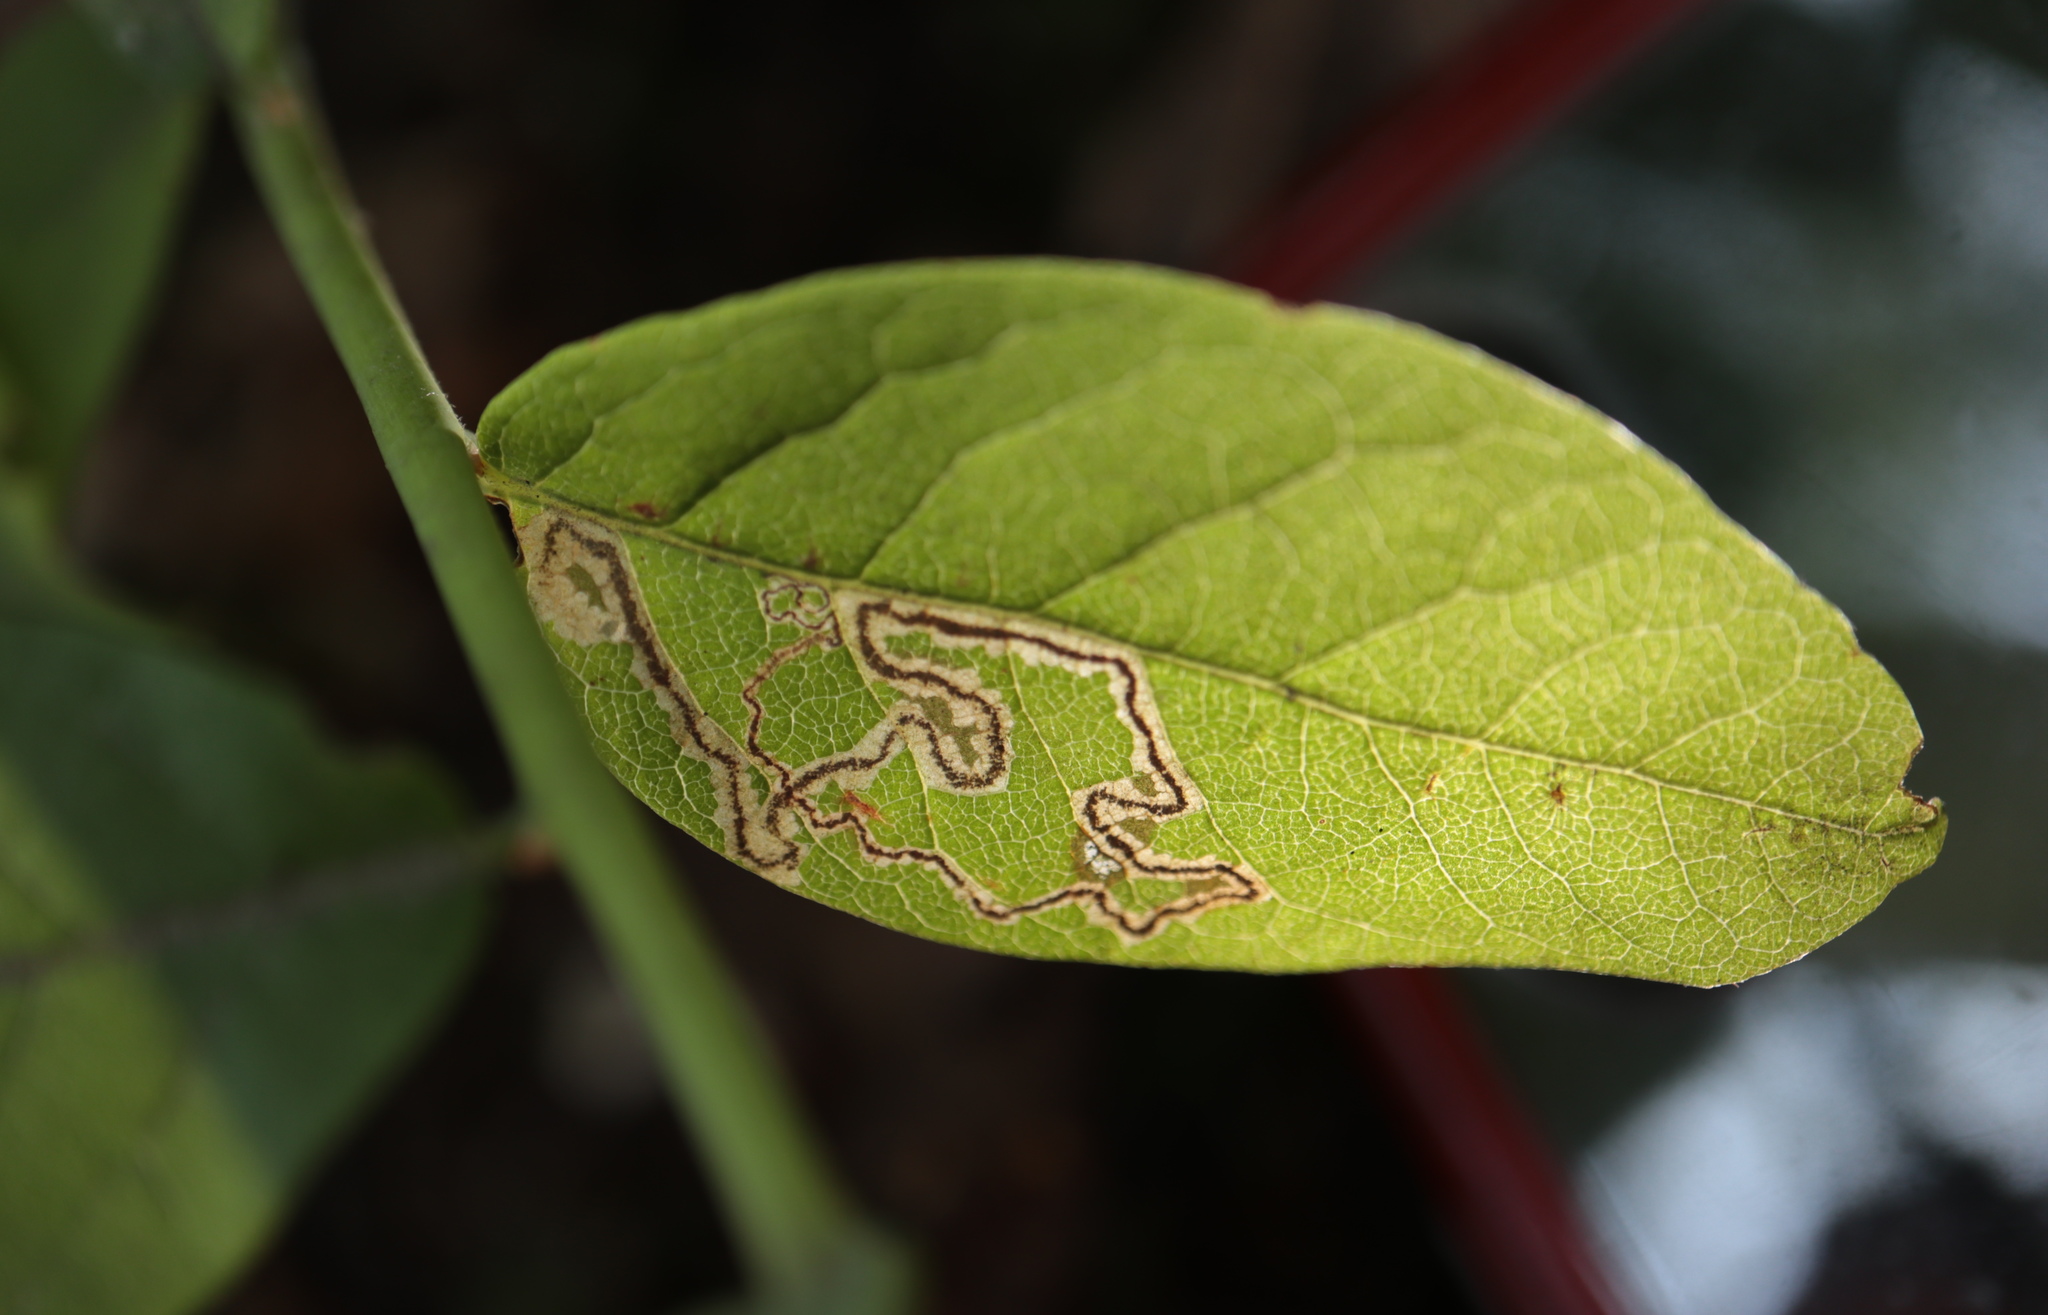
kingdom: Animalia
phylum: Arthropoda
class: Insecta
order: Lepidoptera
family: Nepticulidae
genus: Stigmella
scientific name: Stigmella corylifoliella
